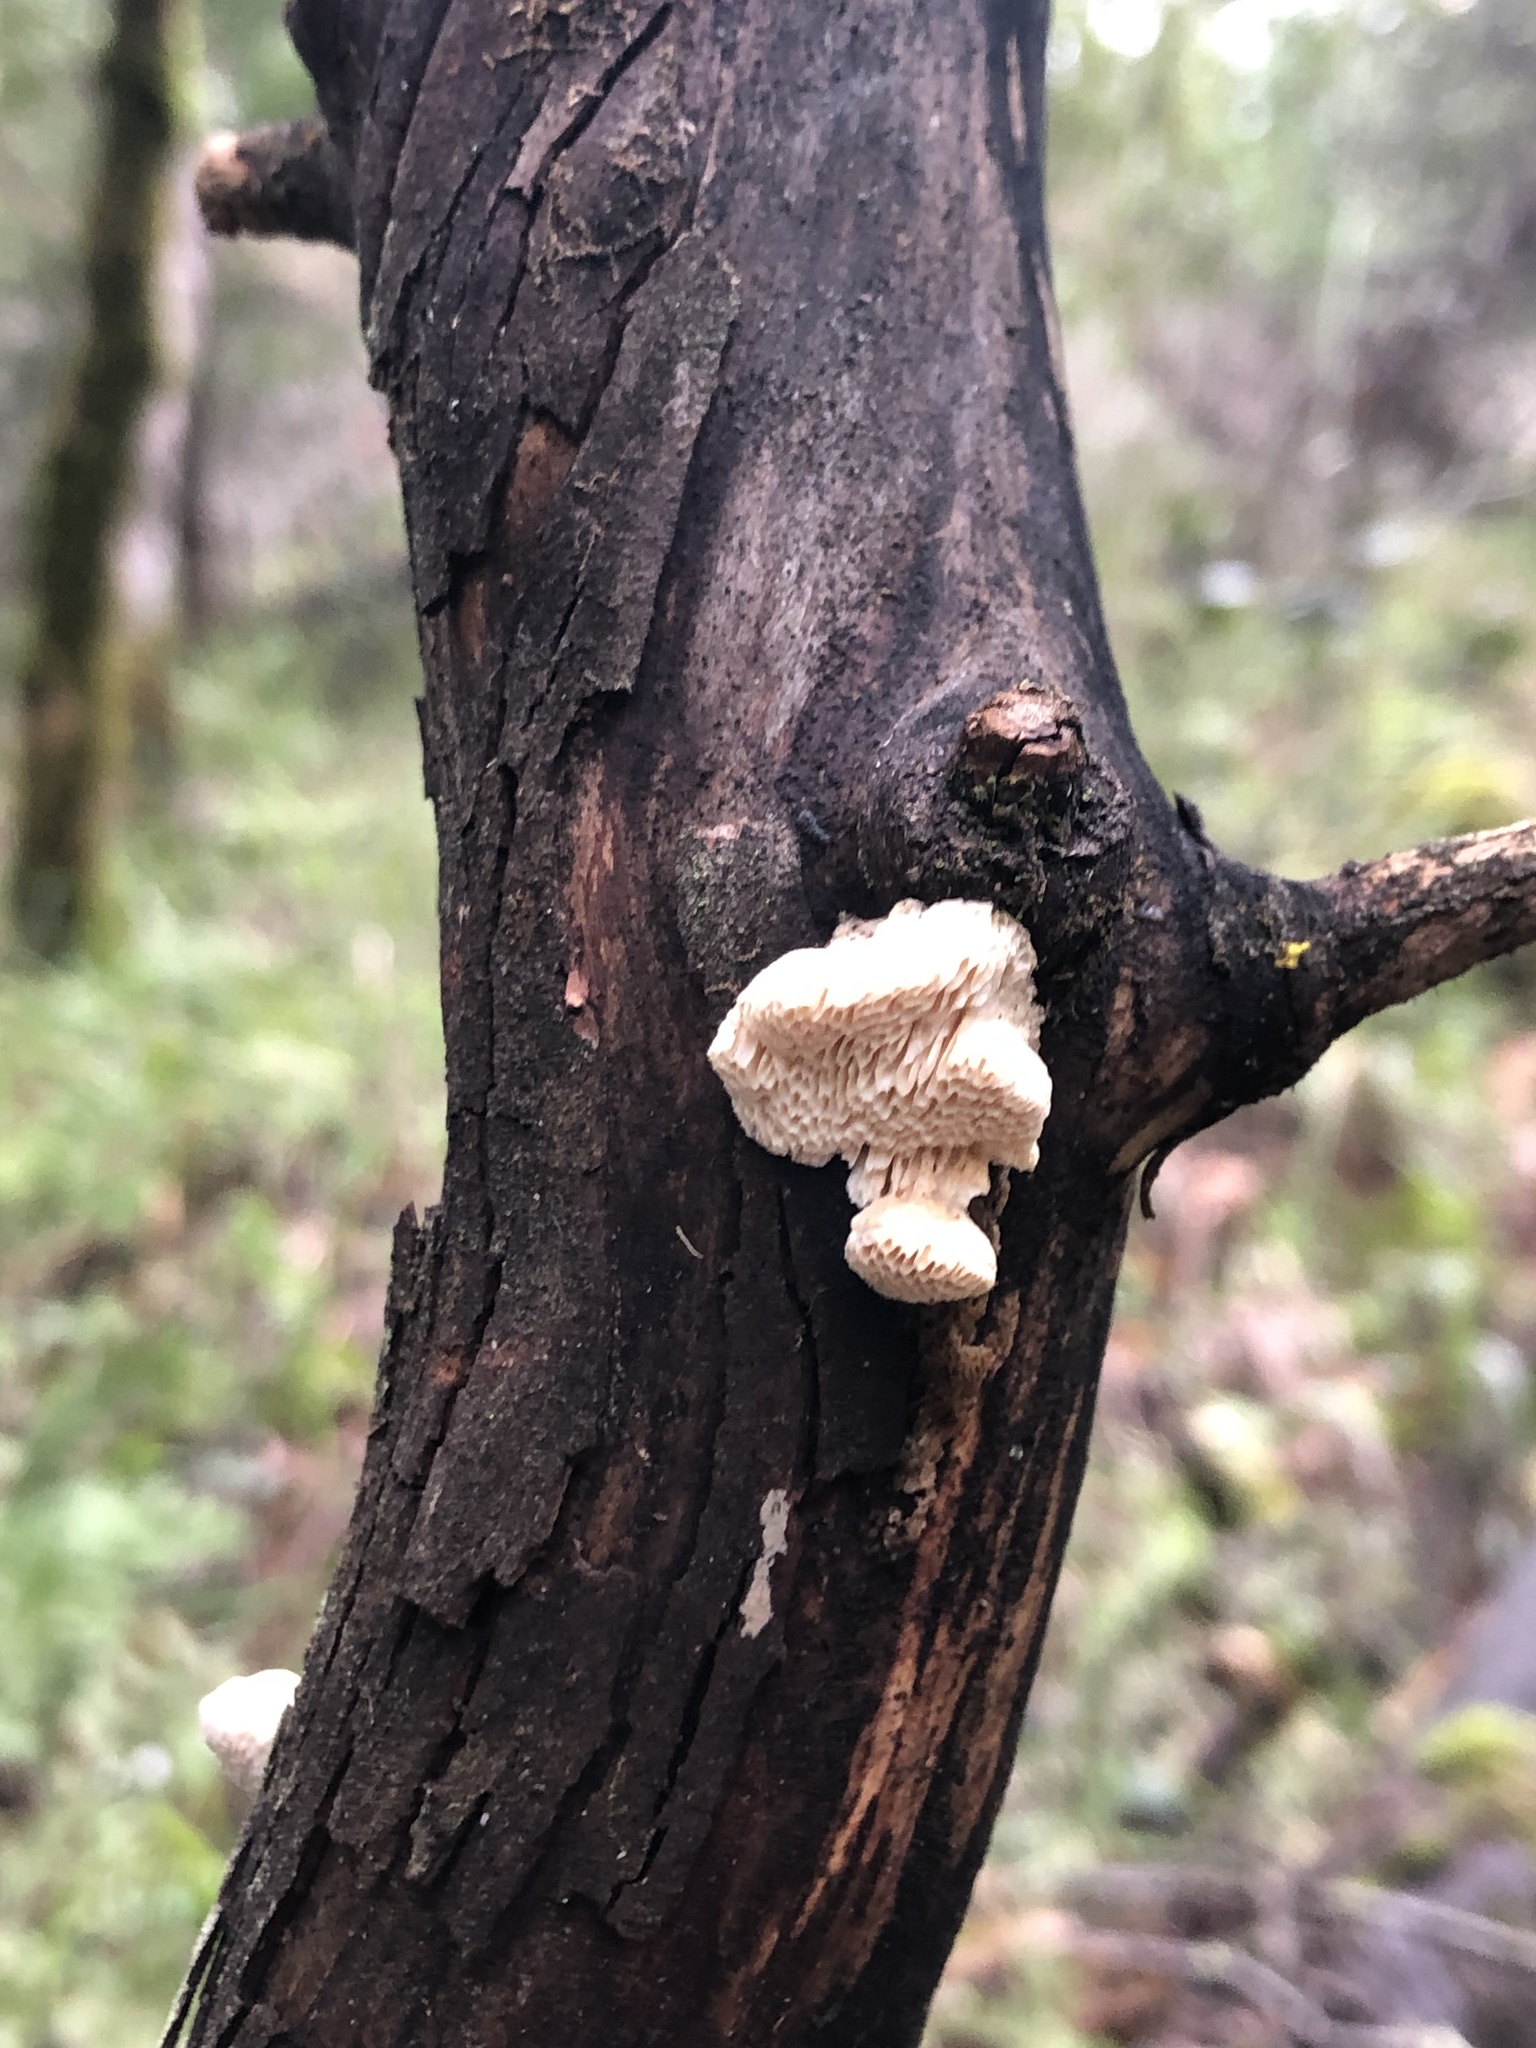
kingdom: Fungi
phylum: Basidiomycota
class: Agaricomycetes
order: Polyporales
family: Fomitopsidaceae
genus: Fomitopsis
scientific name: Fomitopsis
